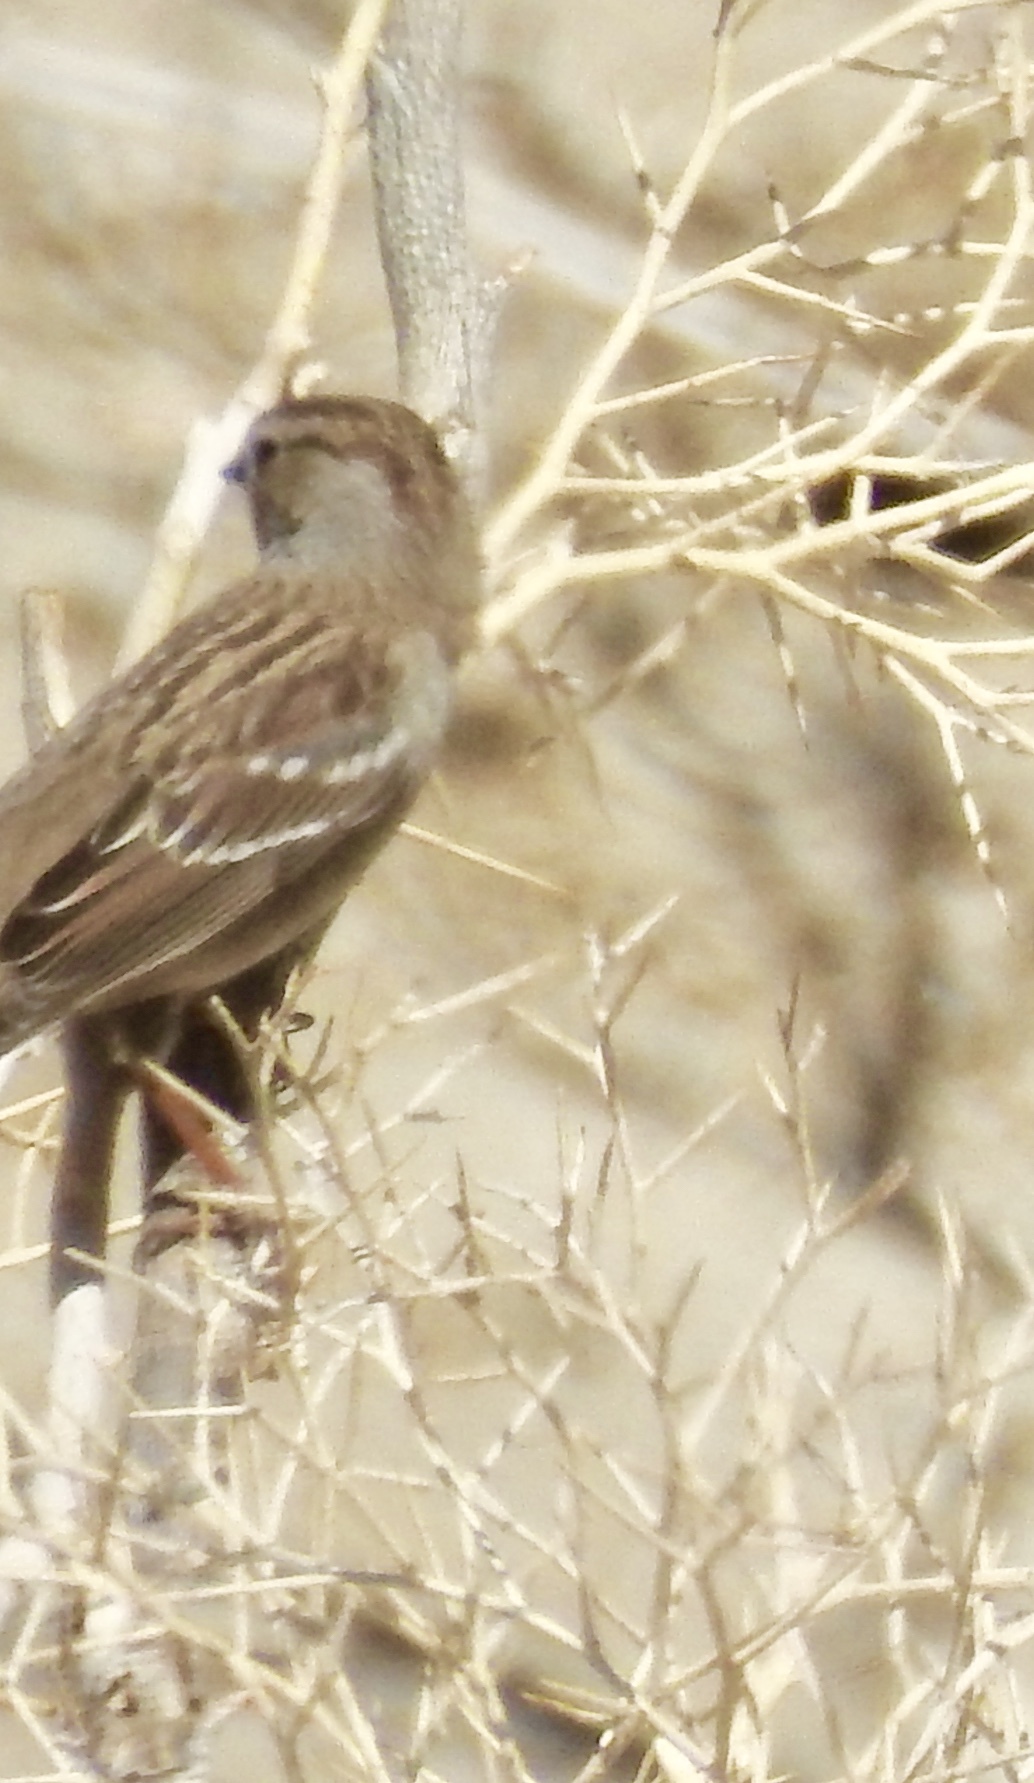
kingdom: Animalia
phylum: Chordata
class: Aves
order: Passeriformes
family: Passerellidae
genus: Zonotrichia
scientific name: Zonotrichia leucophrys
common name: White-crowned sparrow
